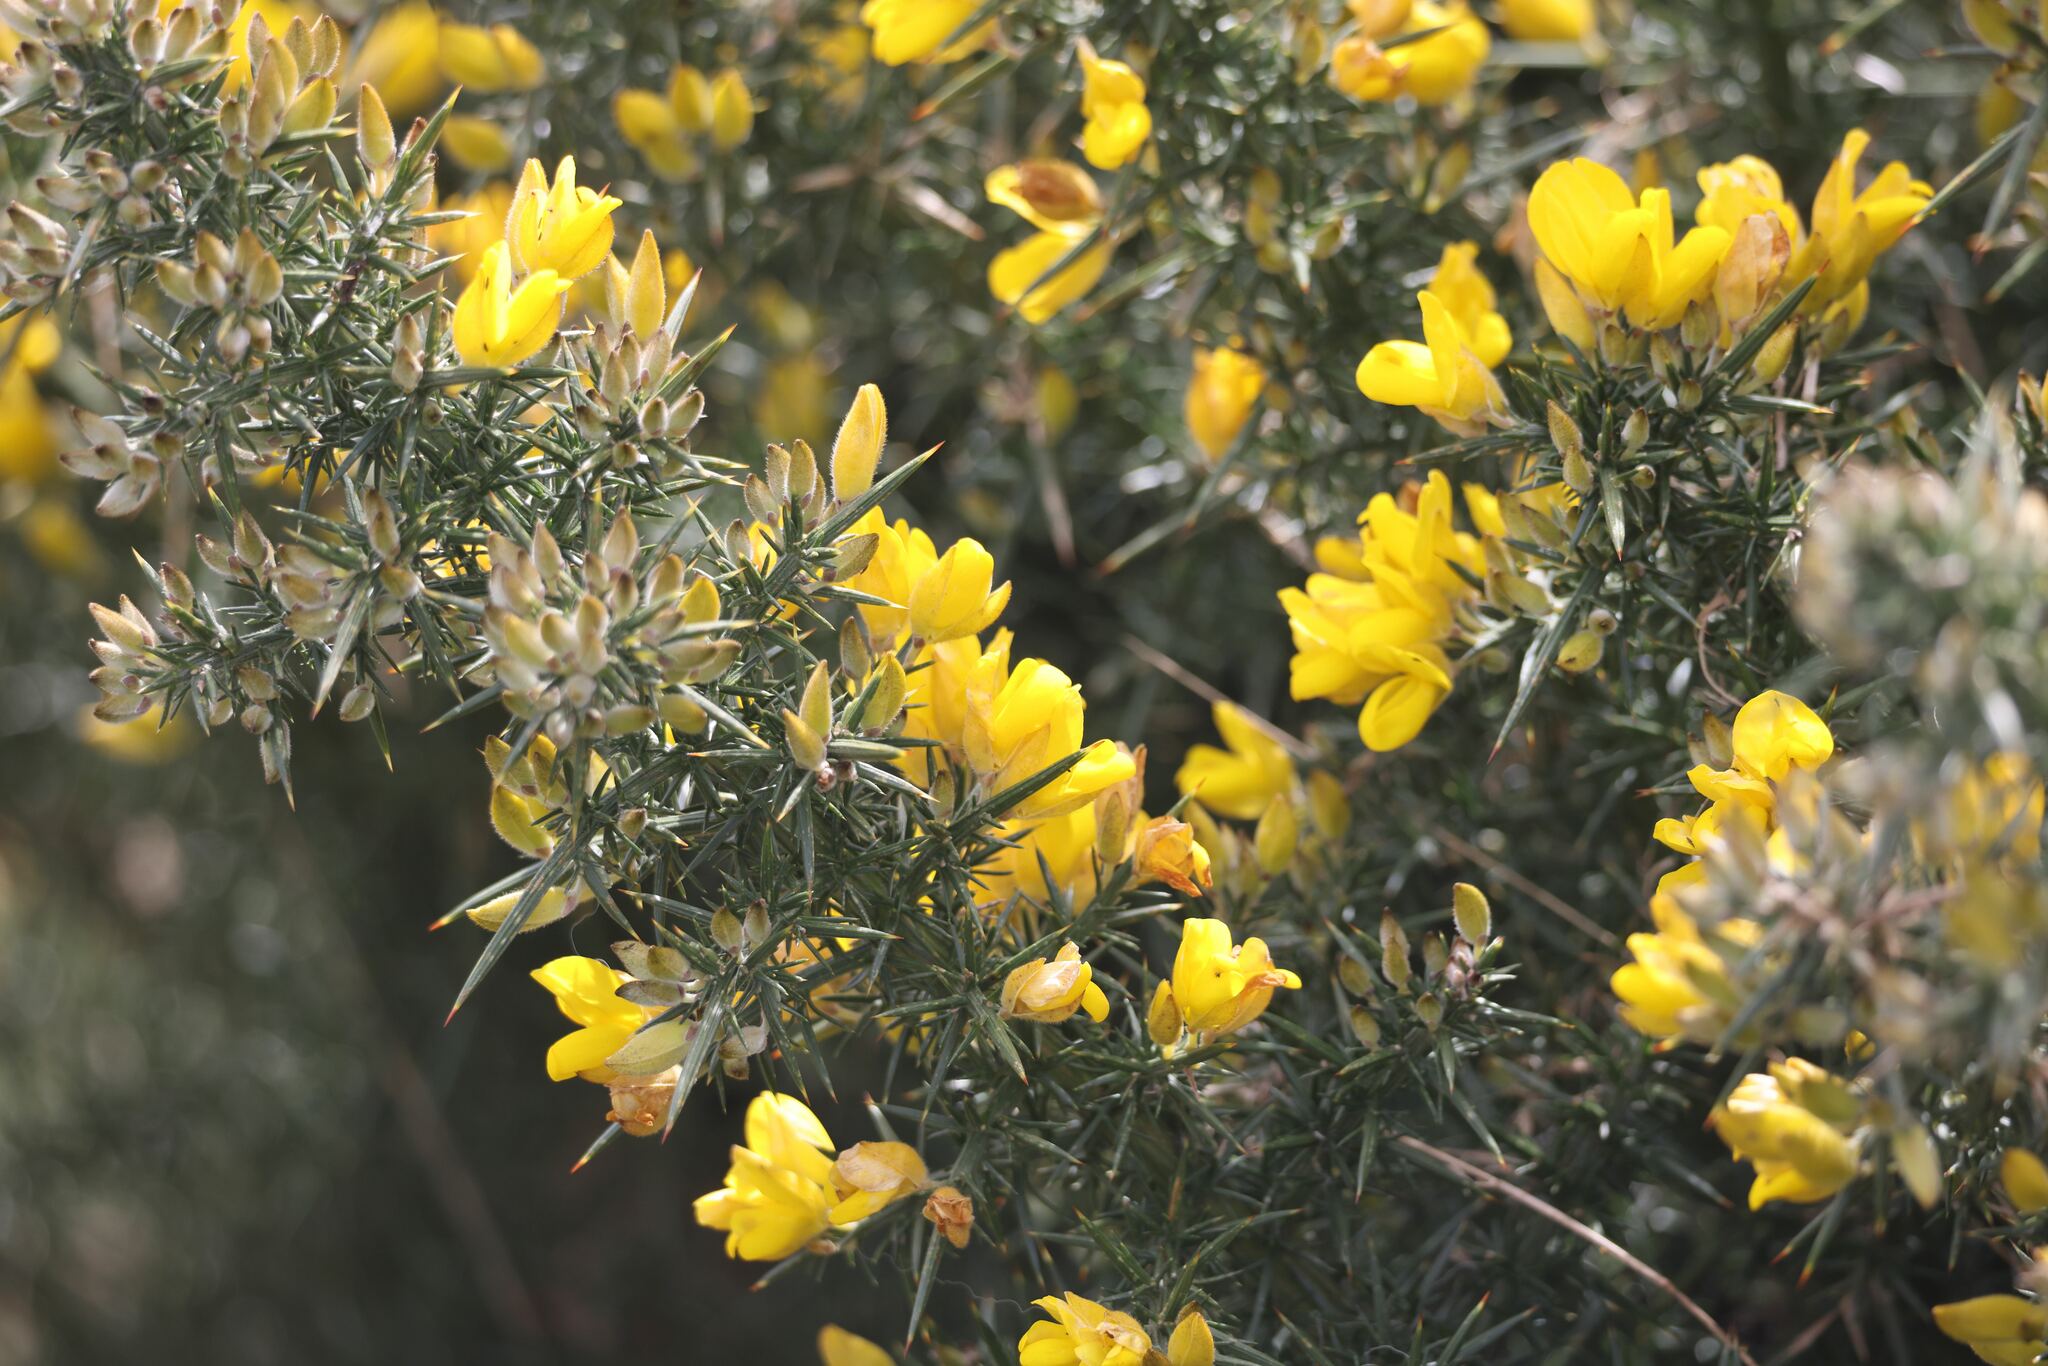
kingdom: Plantae
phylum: Tracheophyta
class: Magnoliopsida
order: Fabales
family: Fabaceae
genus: Ulex
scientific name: Ulex europaeus
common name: Common gorse
